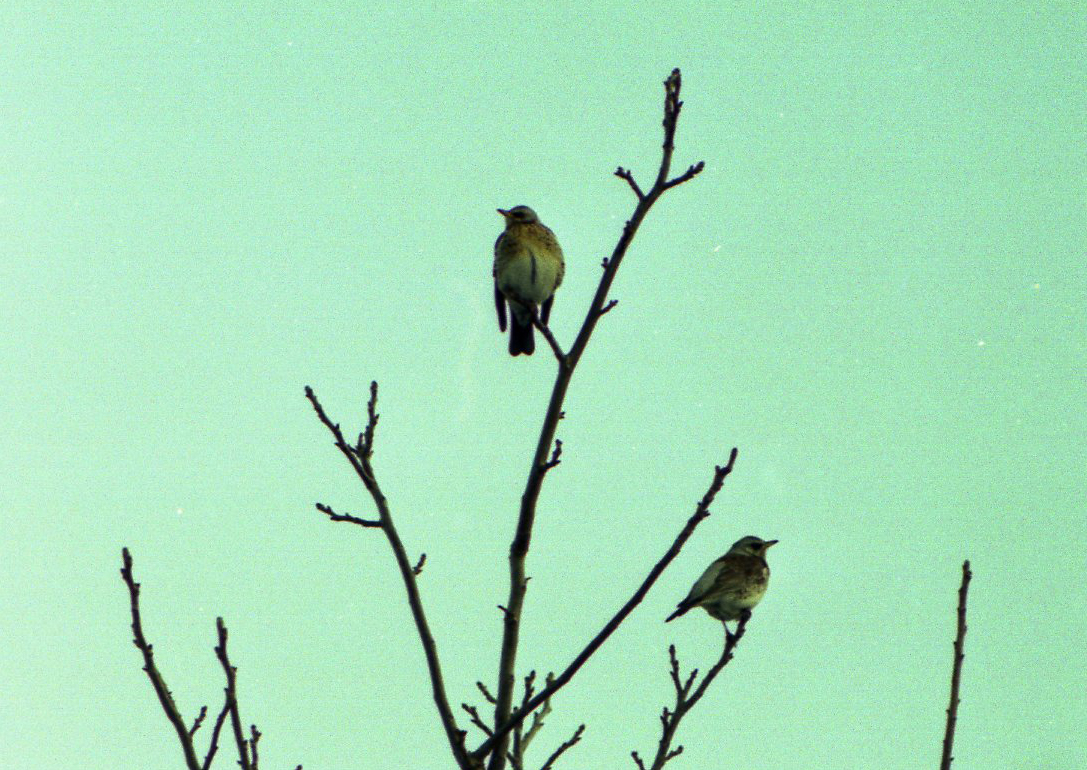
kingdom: Animalia
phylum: Chordata
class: Aves
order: Passeriformes
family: Turdidae
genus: Turdus
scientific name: Turdus pilaris
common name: Fieldfare
